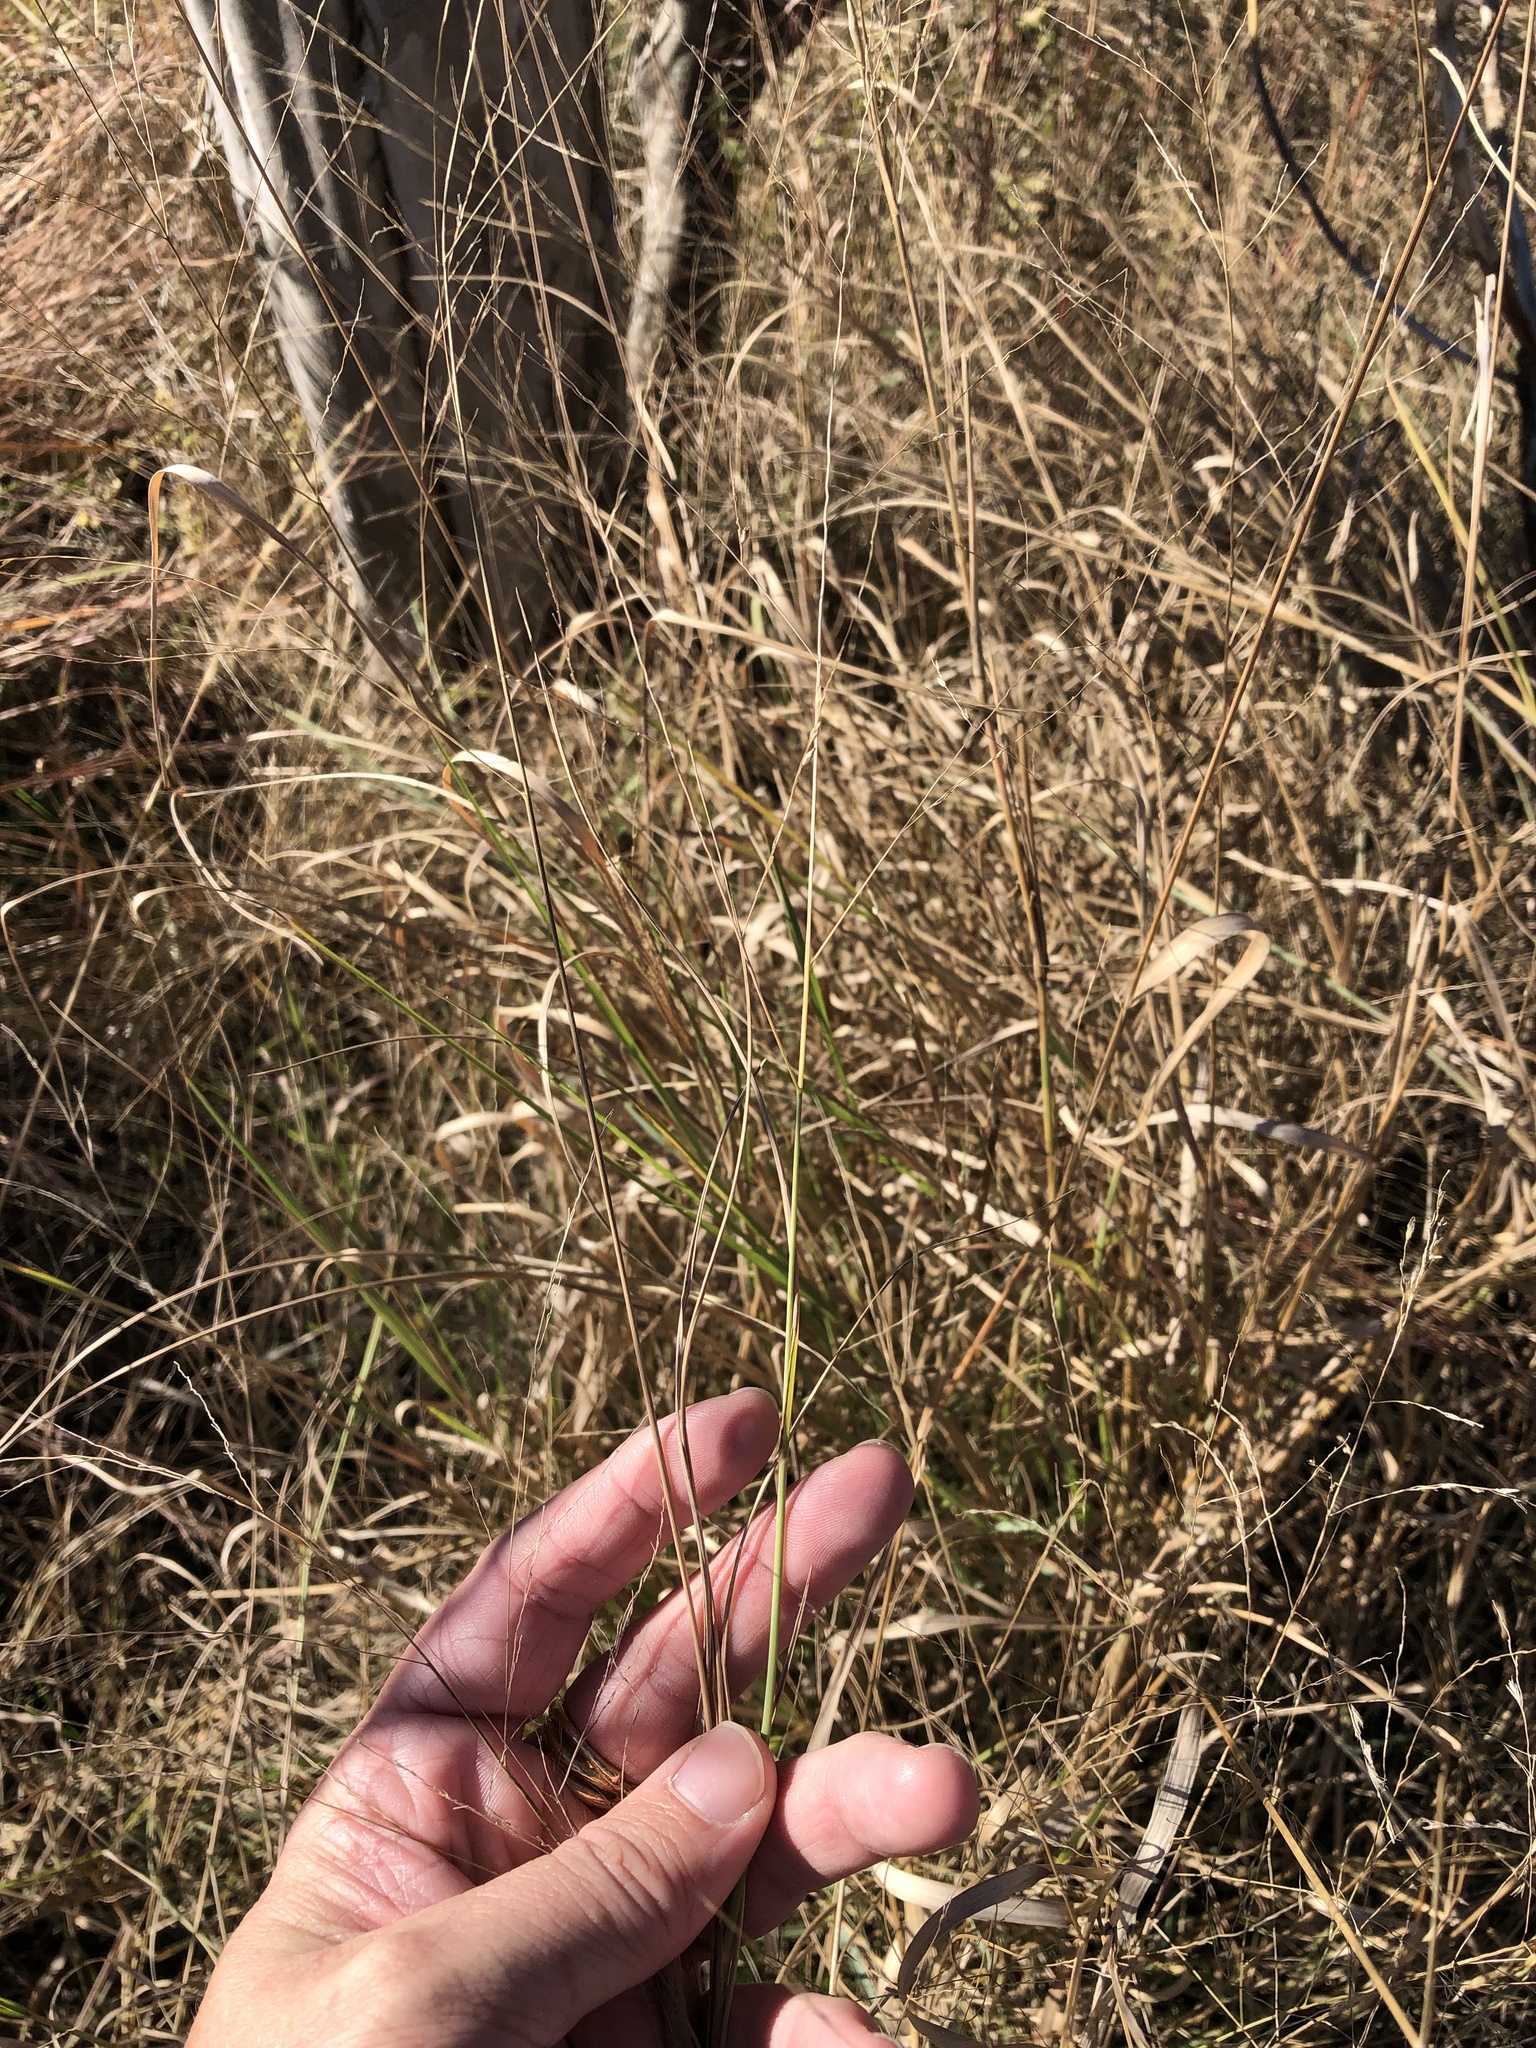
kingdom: Plantae
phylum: Tracheophyta
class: Liliopsida
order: Poales
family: Poaceae
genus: Panicum
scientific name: Panicum coloratum
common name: Kleingrass
